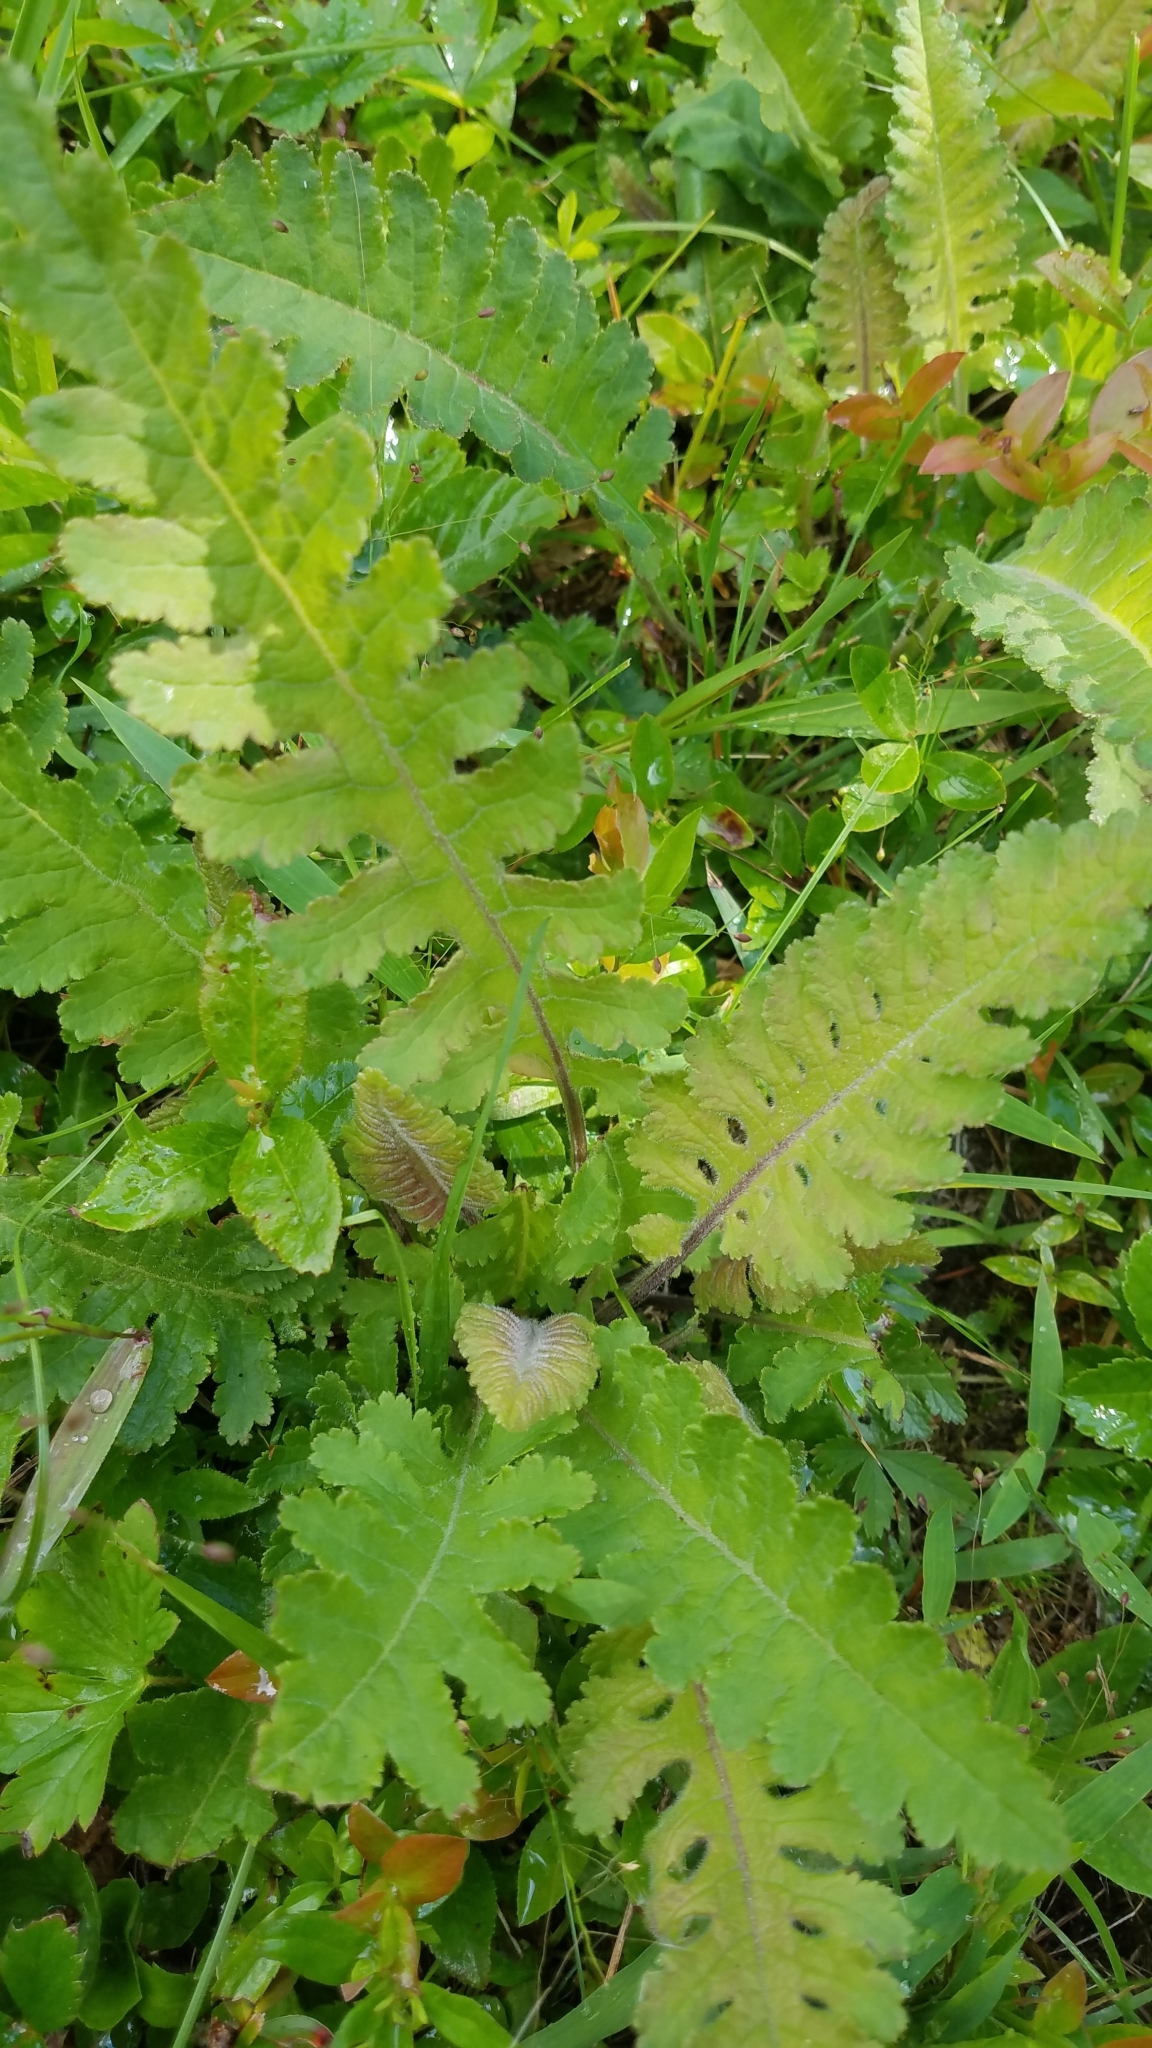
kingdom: Plantae
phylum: Tracheophyta
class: Magnoliopsida
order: Lamiales
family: Orobanchaceae
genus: Pedicularis
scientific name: Pedicularis canadensis
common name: Early lousewort
